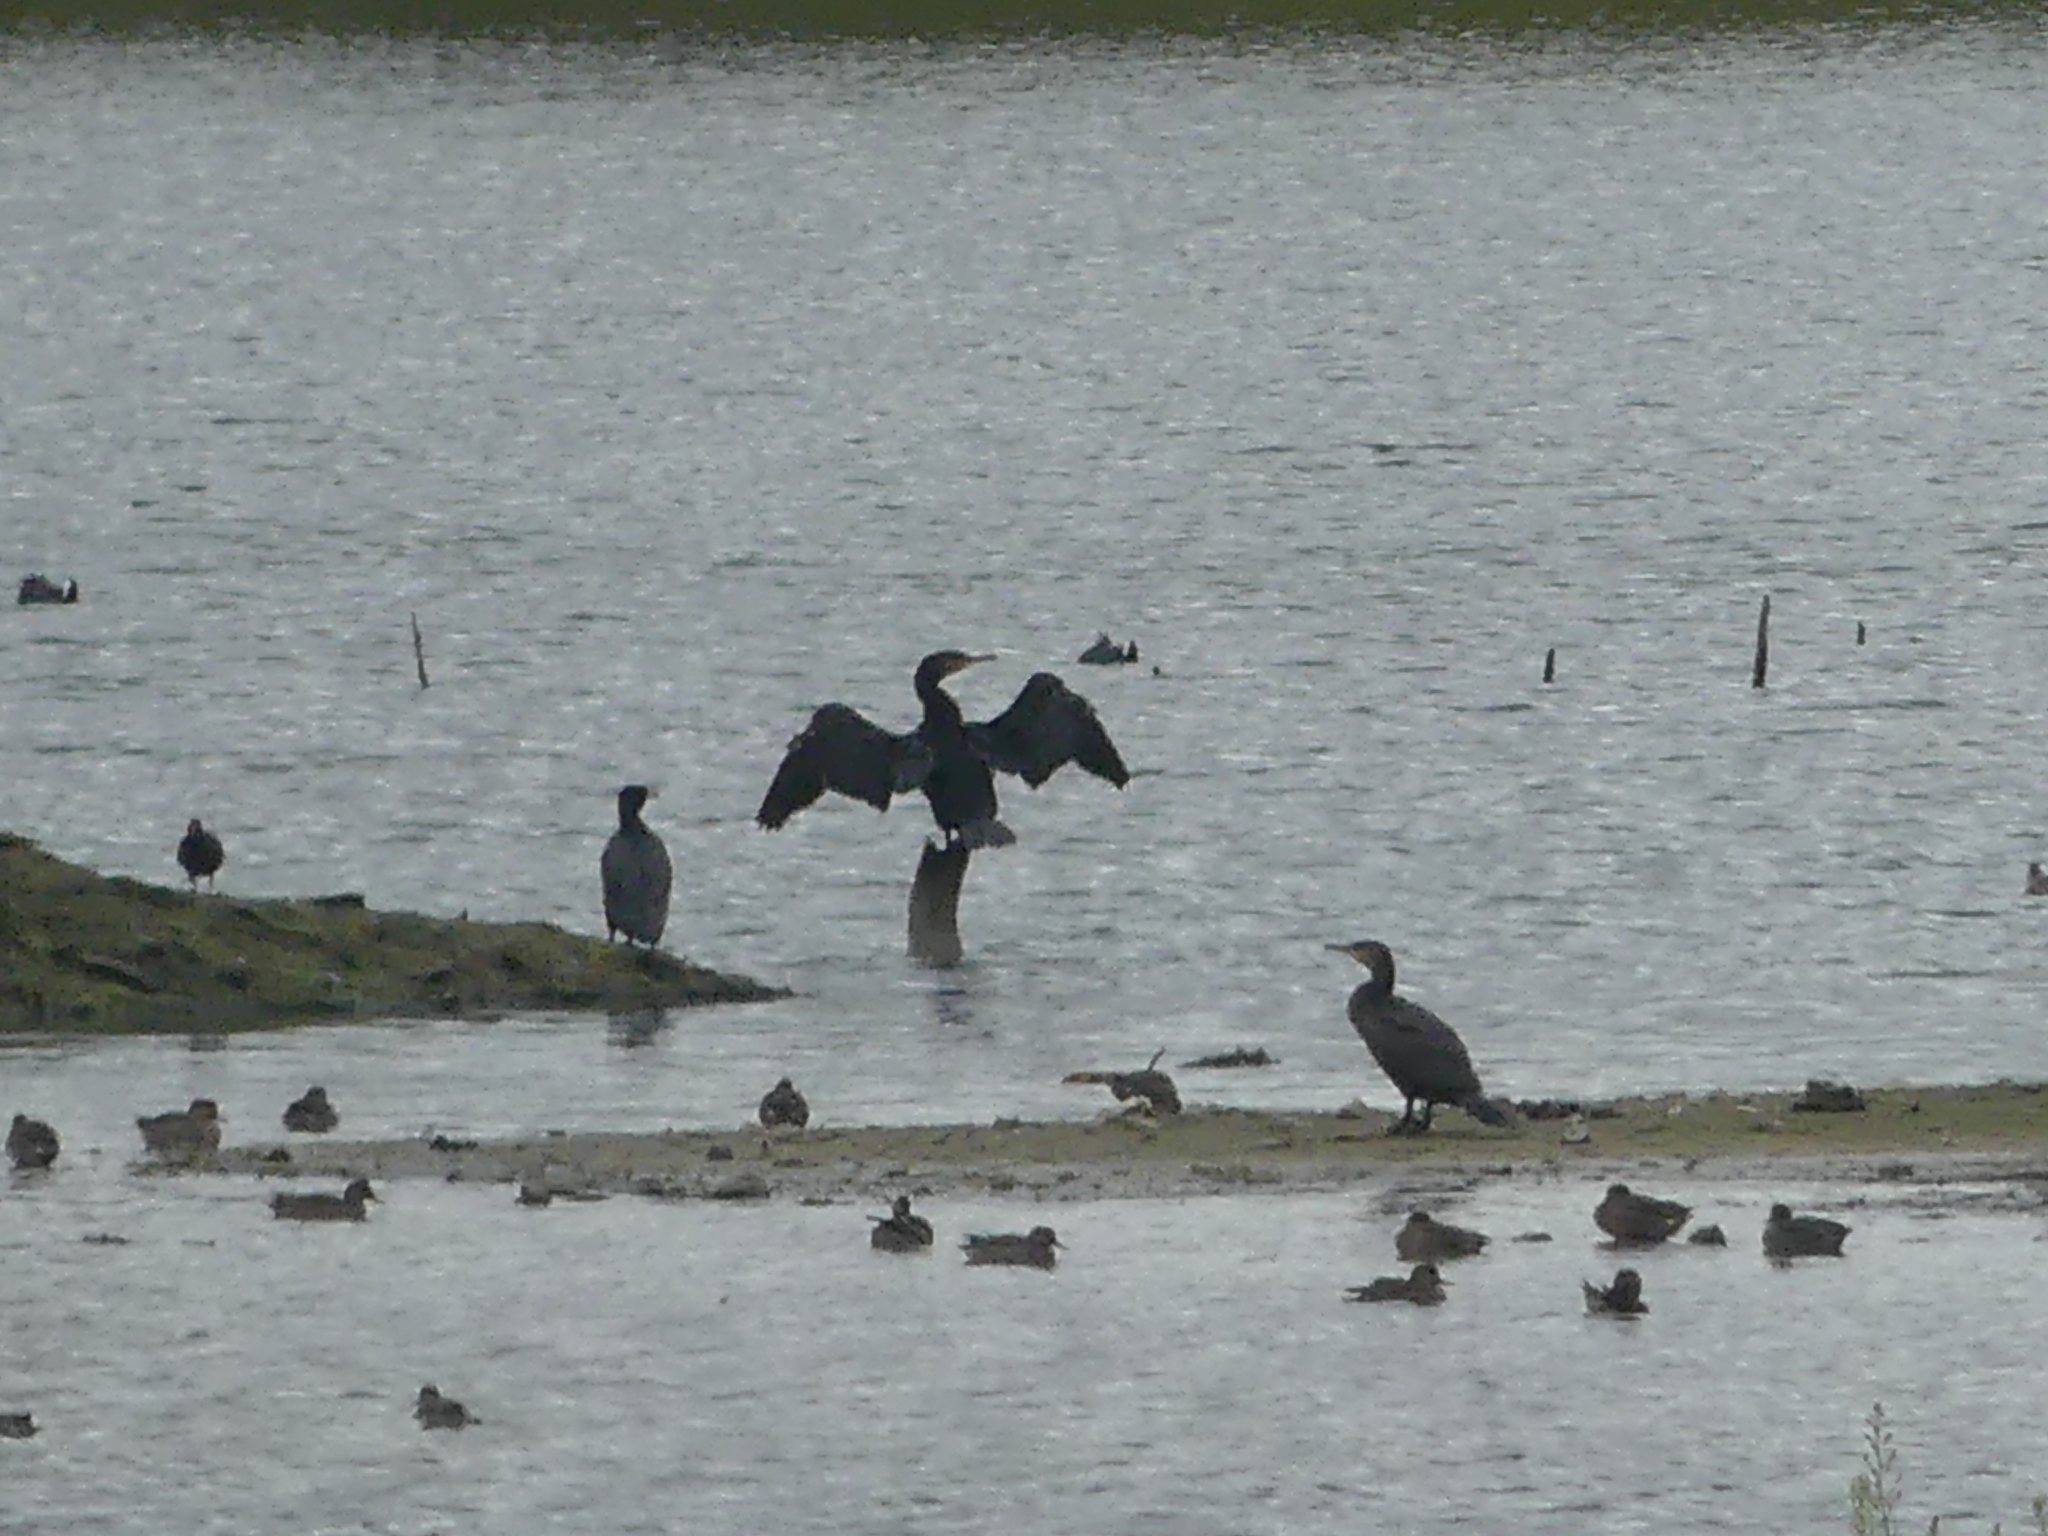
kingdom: Animalia
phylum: Chordata
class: Aves
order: Suliformes
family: Phalacrocoracidae
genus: Phalacrocorax
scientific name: Phalacrocorax carbo
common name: Great cormorant
